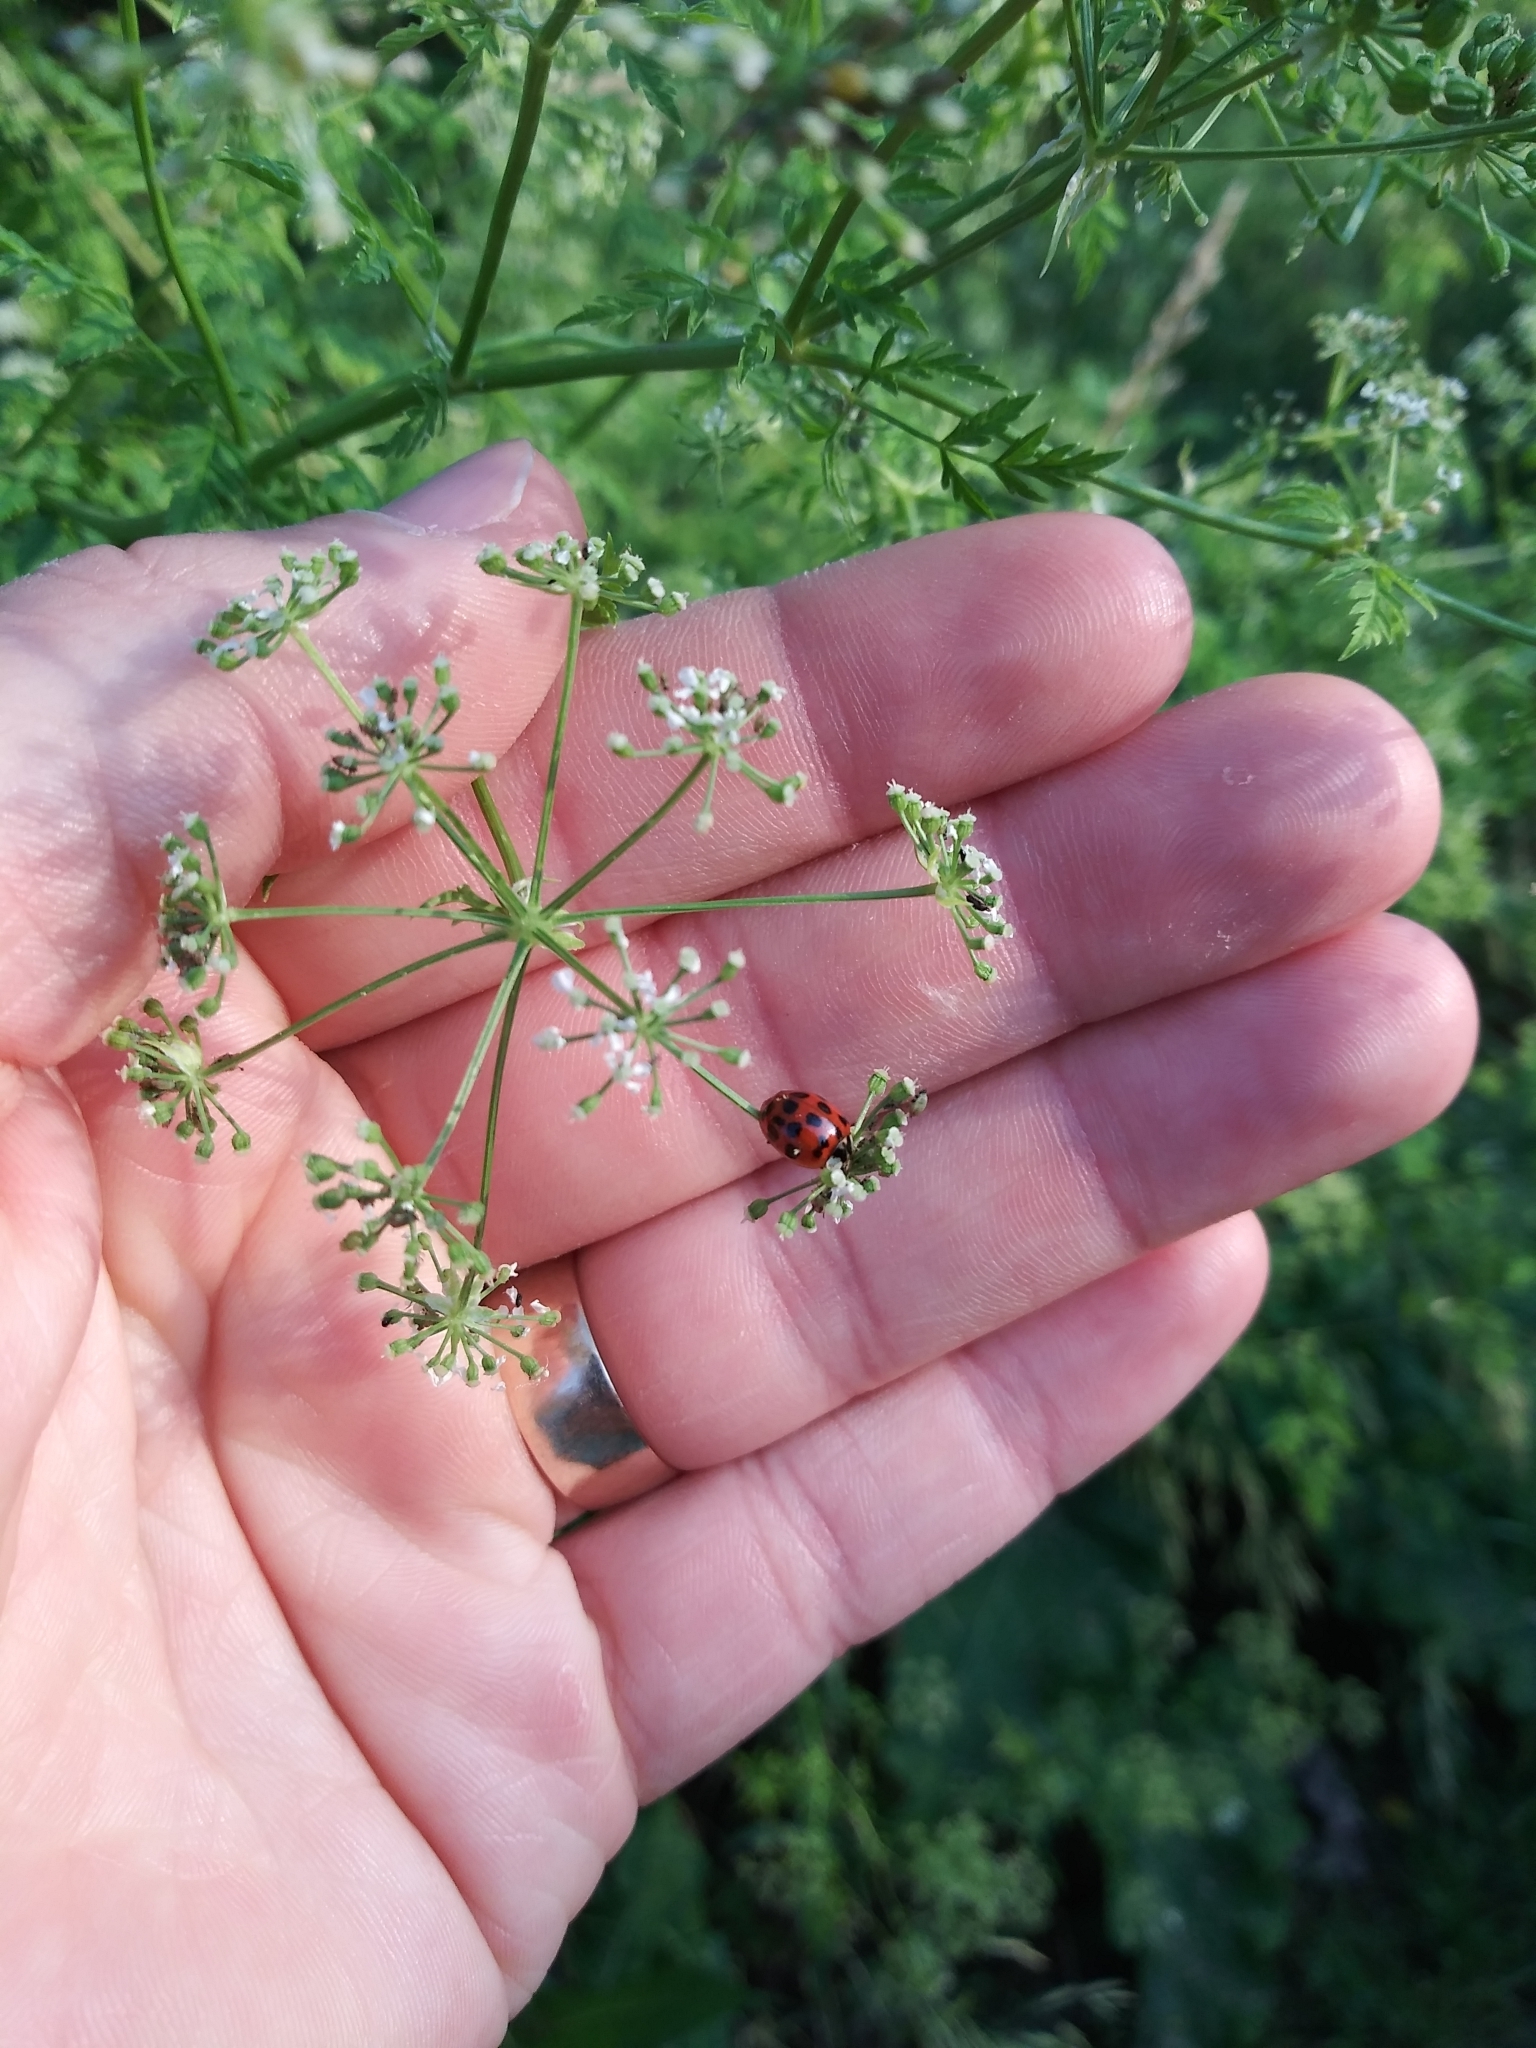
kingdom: Animalia
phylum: Arthropoda
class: Insecta
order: Coleoptera
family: Coccinellidae
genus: Harmonia
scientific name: Harmonia axyridis
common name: Harlequin ladybird
